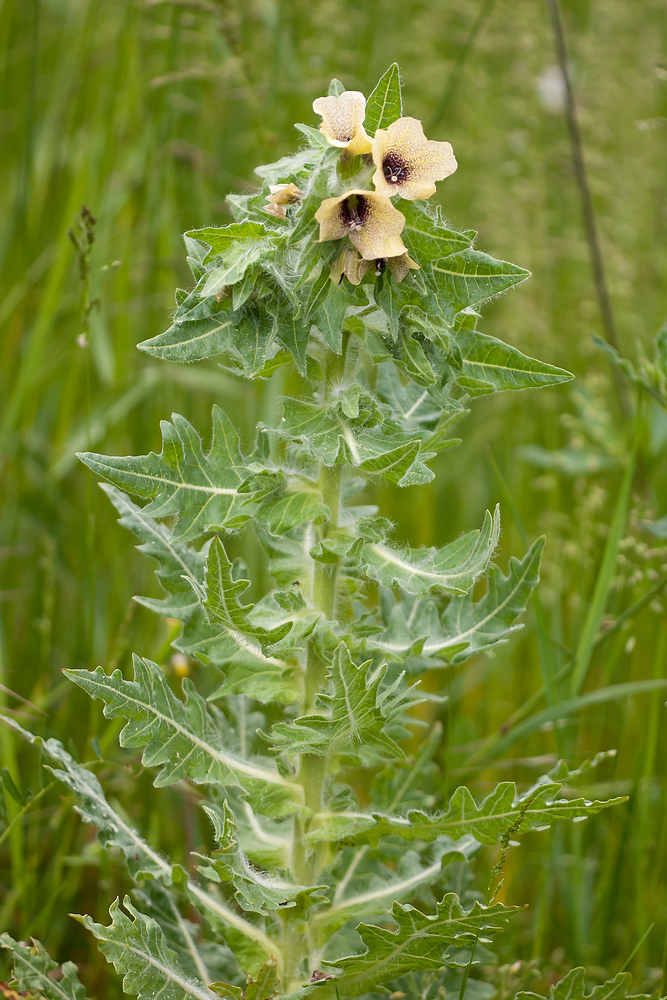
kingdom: Plantae
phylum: Tracheophyta
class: Magnoliopsida
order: Solanales
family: Solanaceae
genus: Hyoscyamus
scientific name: Hyoscyamus niger
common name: Henbane
